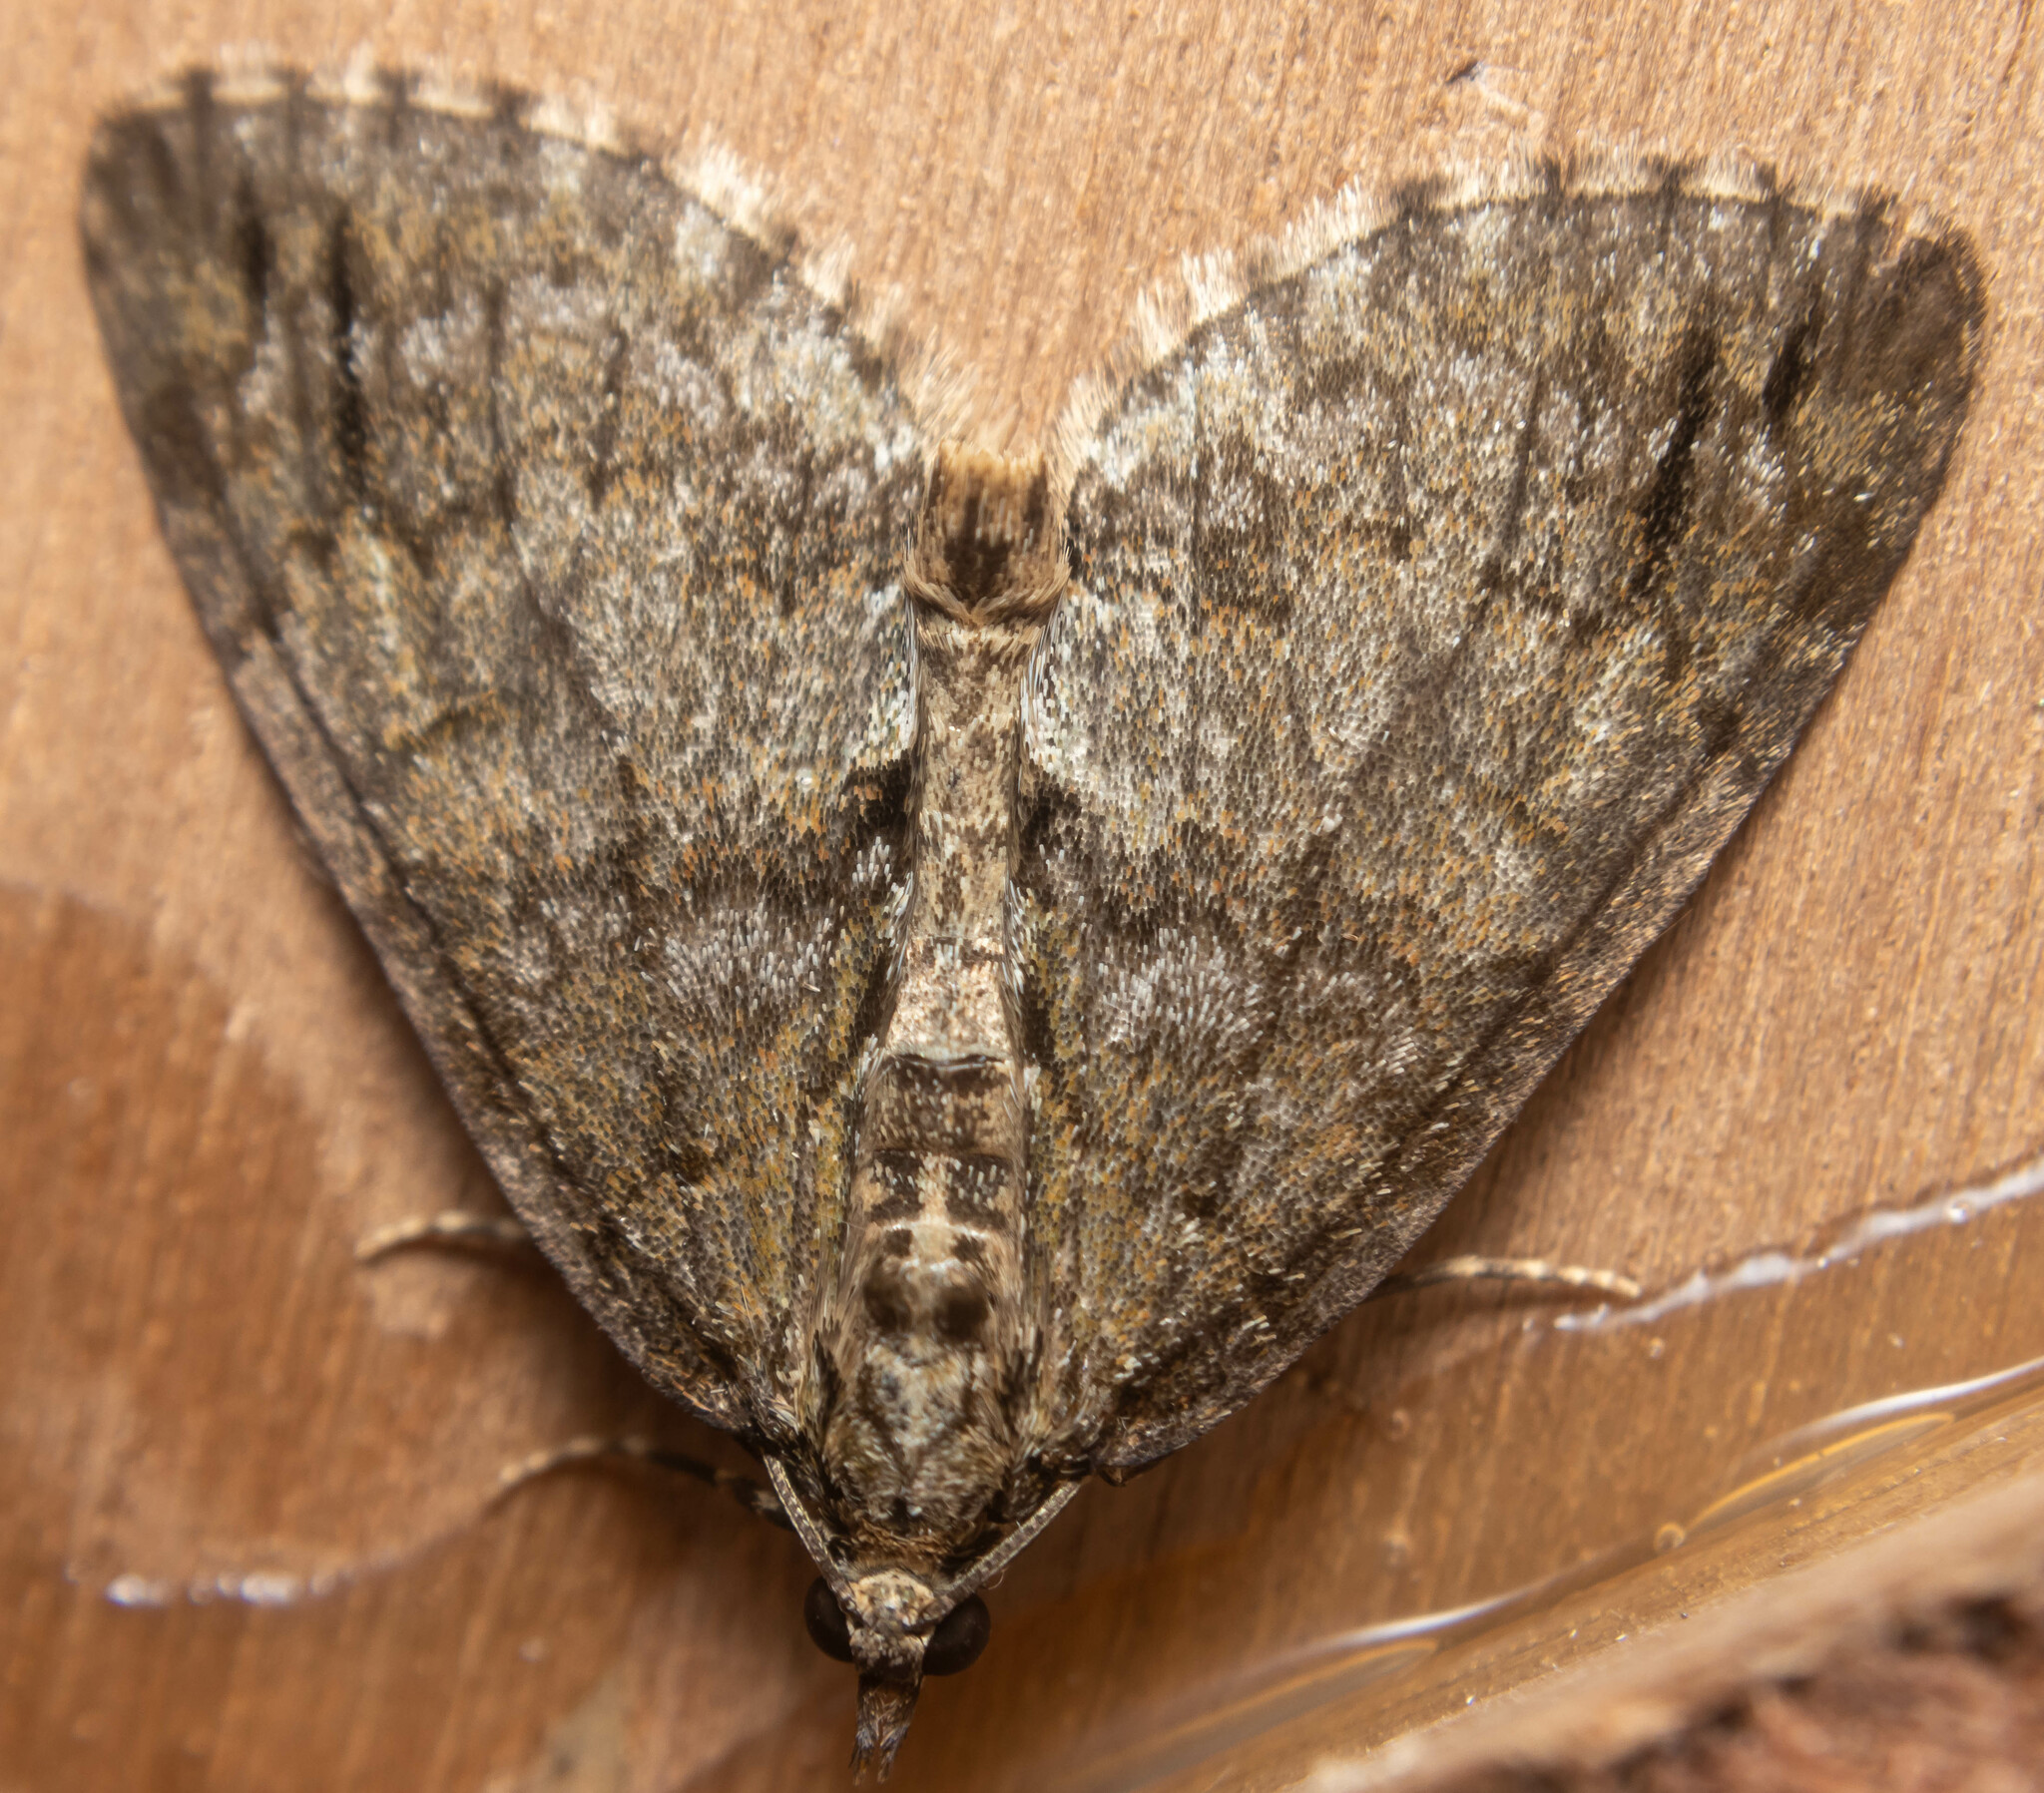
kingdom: Animalia
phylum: Arthropoda
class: Insecta
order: Lepidoptera
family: Geometridae
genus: Hydriomena
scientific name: Hydriomena impluviata
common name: May highflyer
